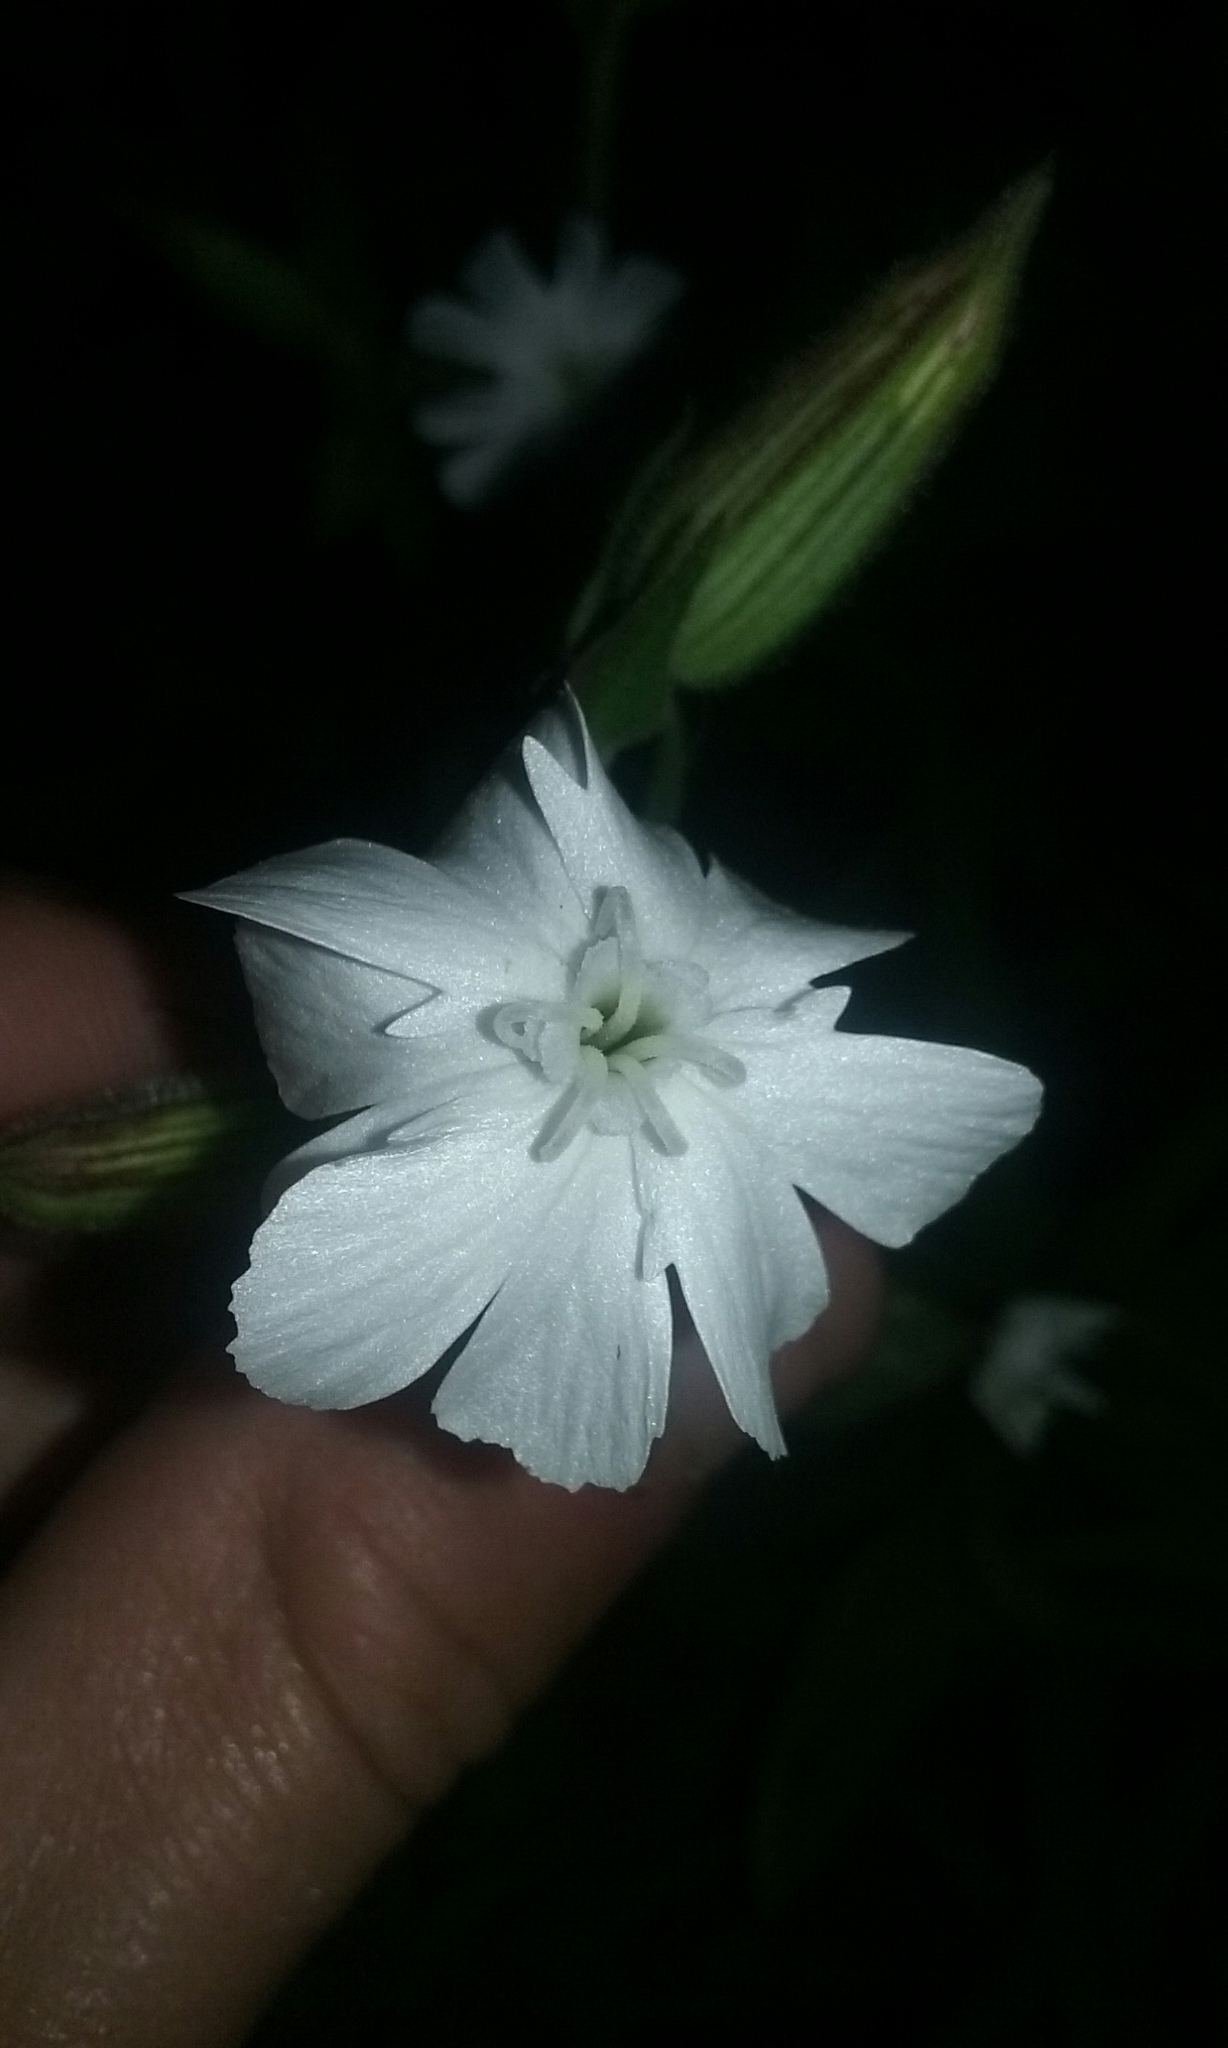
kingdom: Plantae
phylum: Tracheophyta
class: Magnoliopsida
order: Caryophyllales
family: Caryophyllaceae
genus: Silene
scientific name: Silene latifolia
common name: White campion
